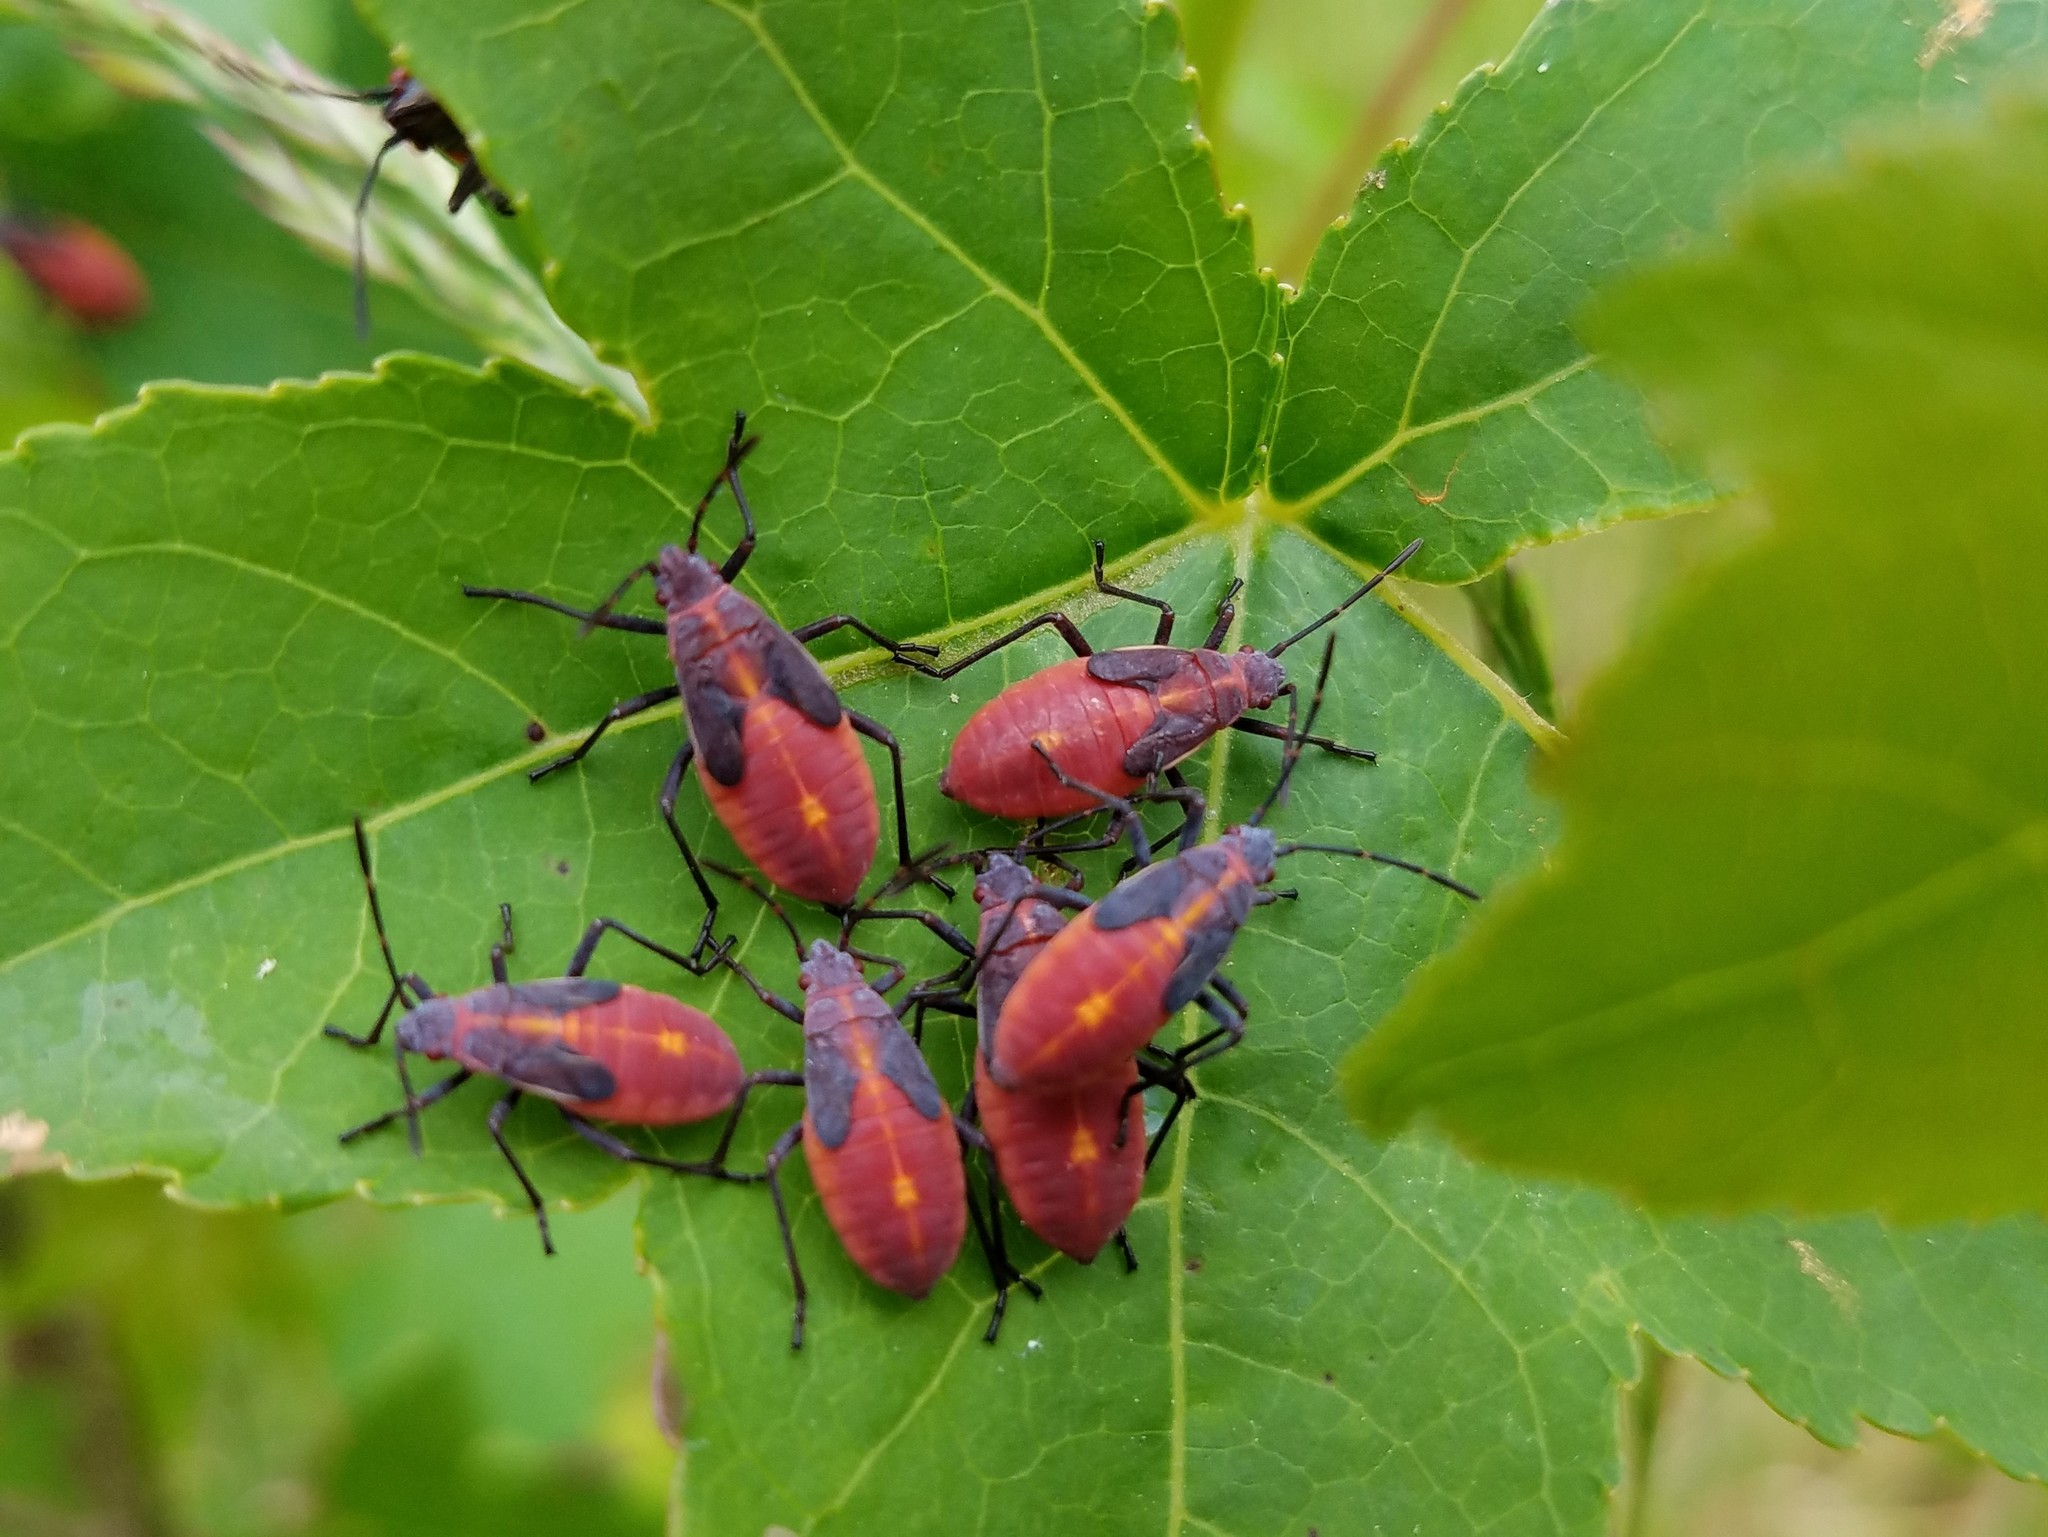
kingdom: Animalia
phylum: Arthropoda
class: Insecta
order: Hemiptera
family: Rhopalidae
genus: Boisea
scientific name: Boisea trivittata
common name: Boxelder bug
